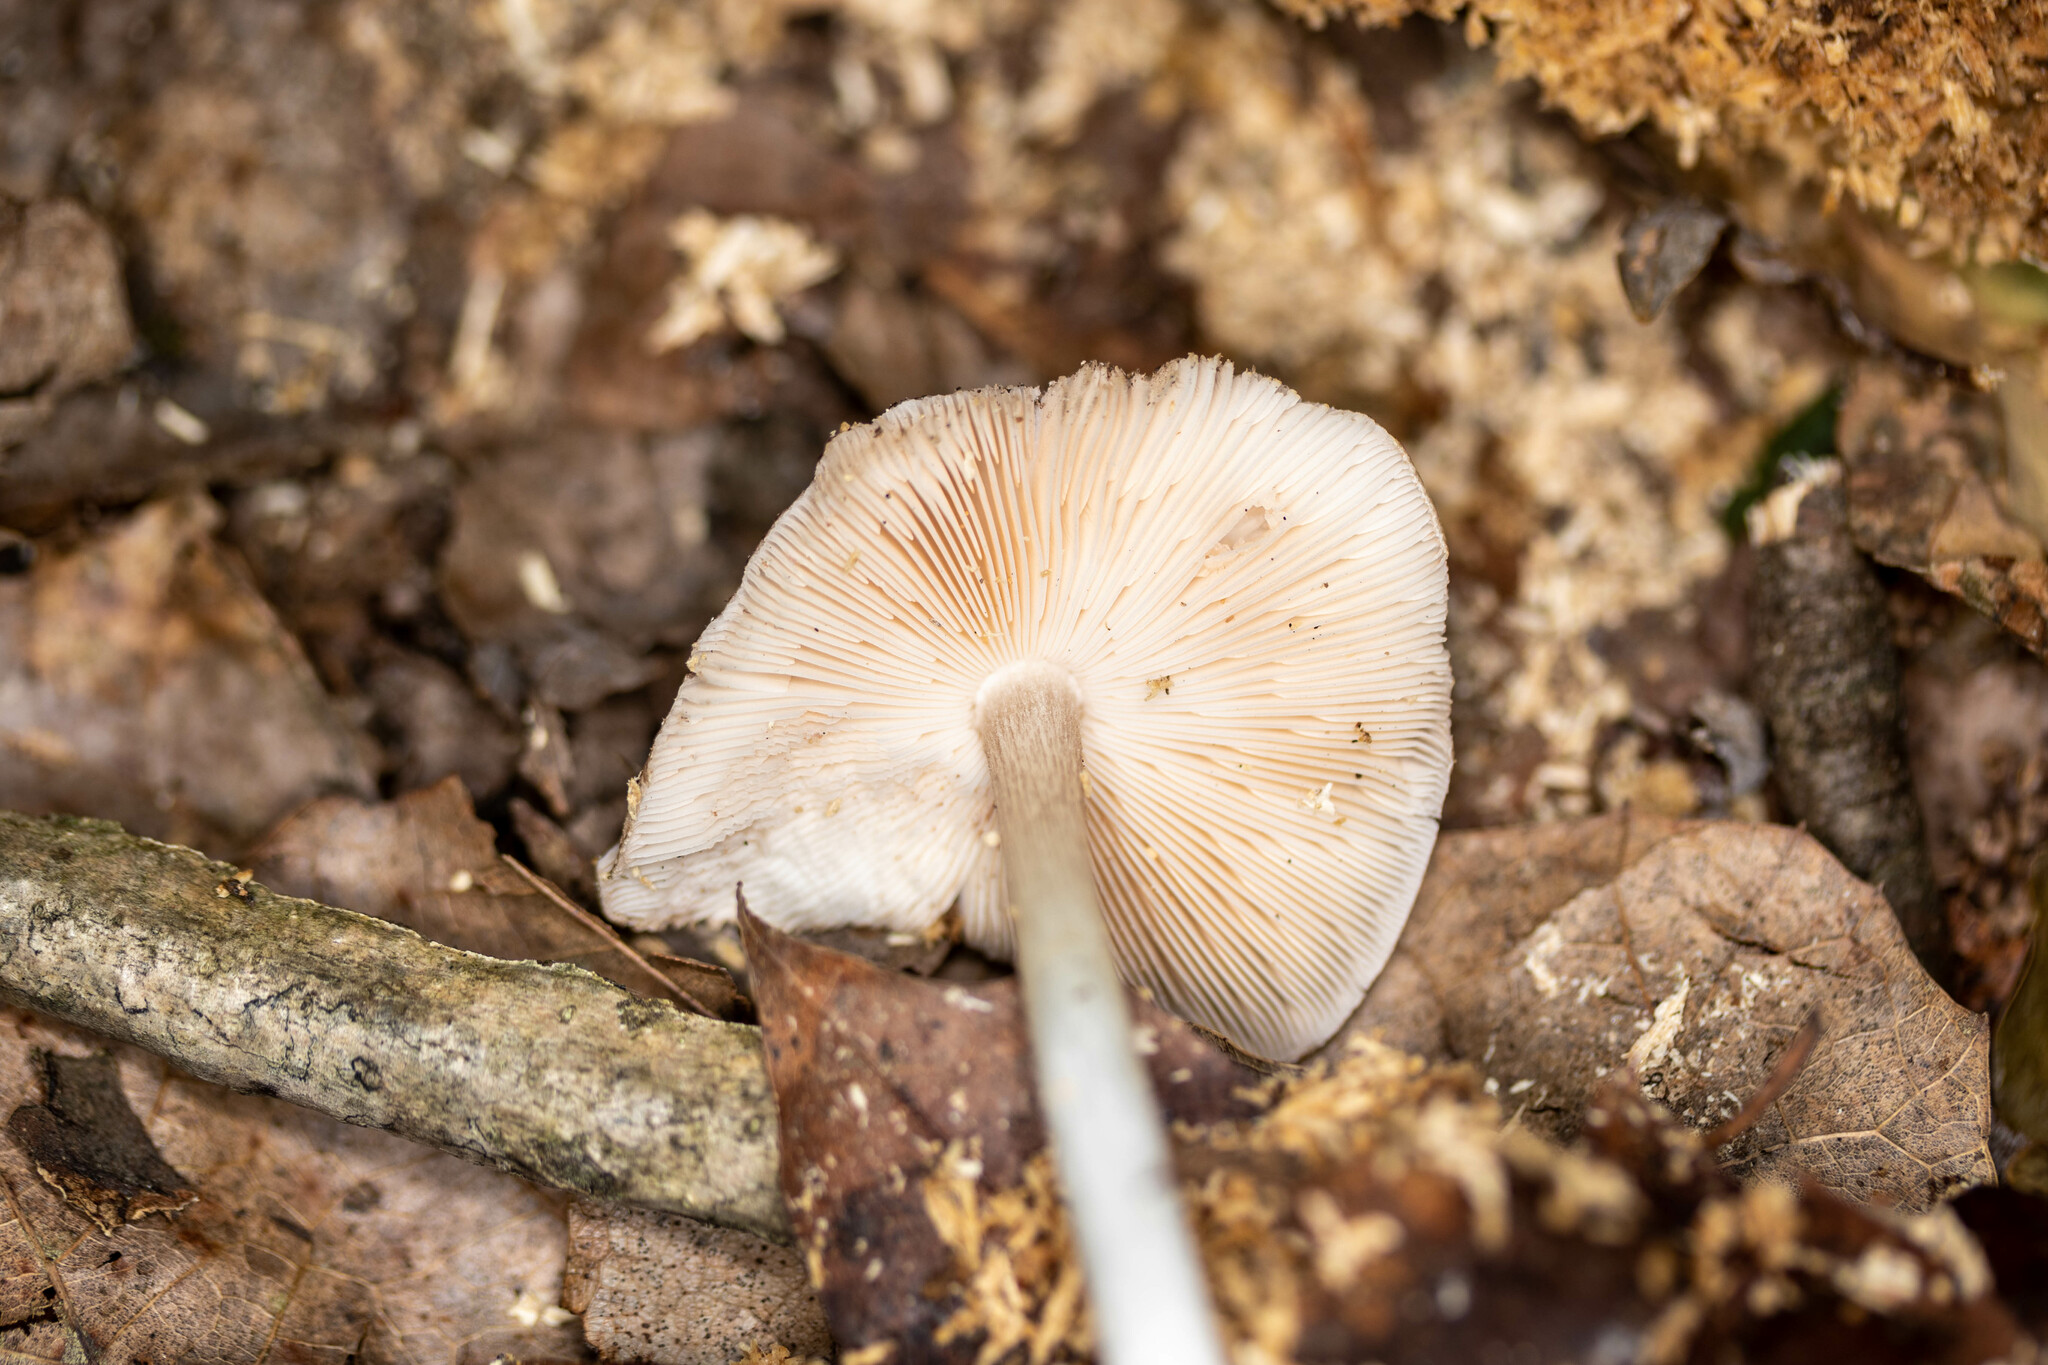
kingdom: Fungi
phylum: Basidiomycota
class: Agaricomycetes
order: Agaricales
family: Pluteaceae
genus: Pluteus
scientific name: Pluteus hongoi
